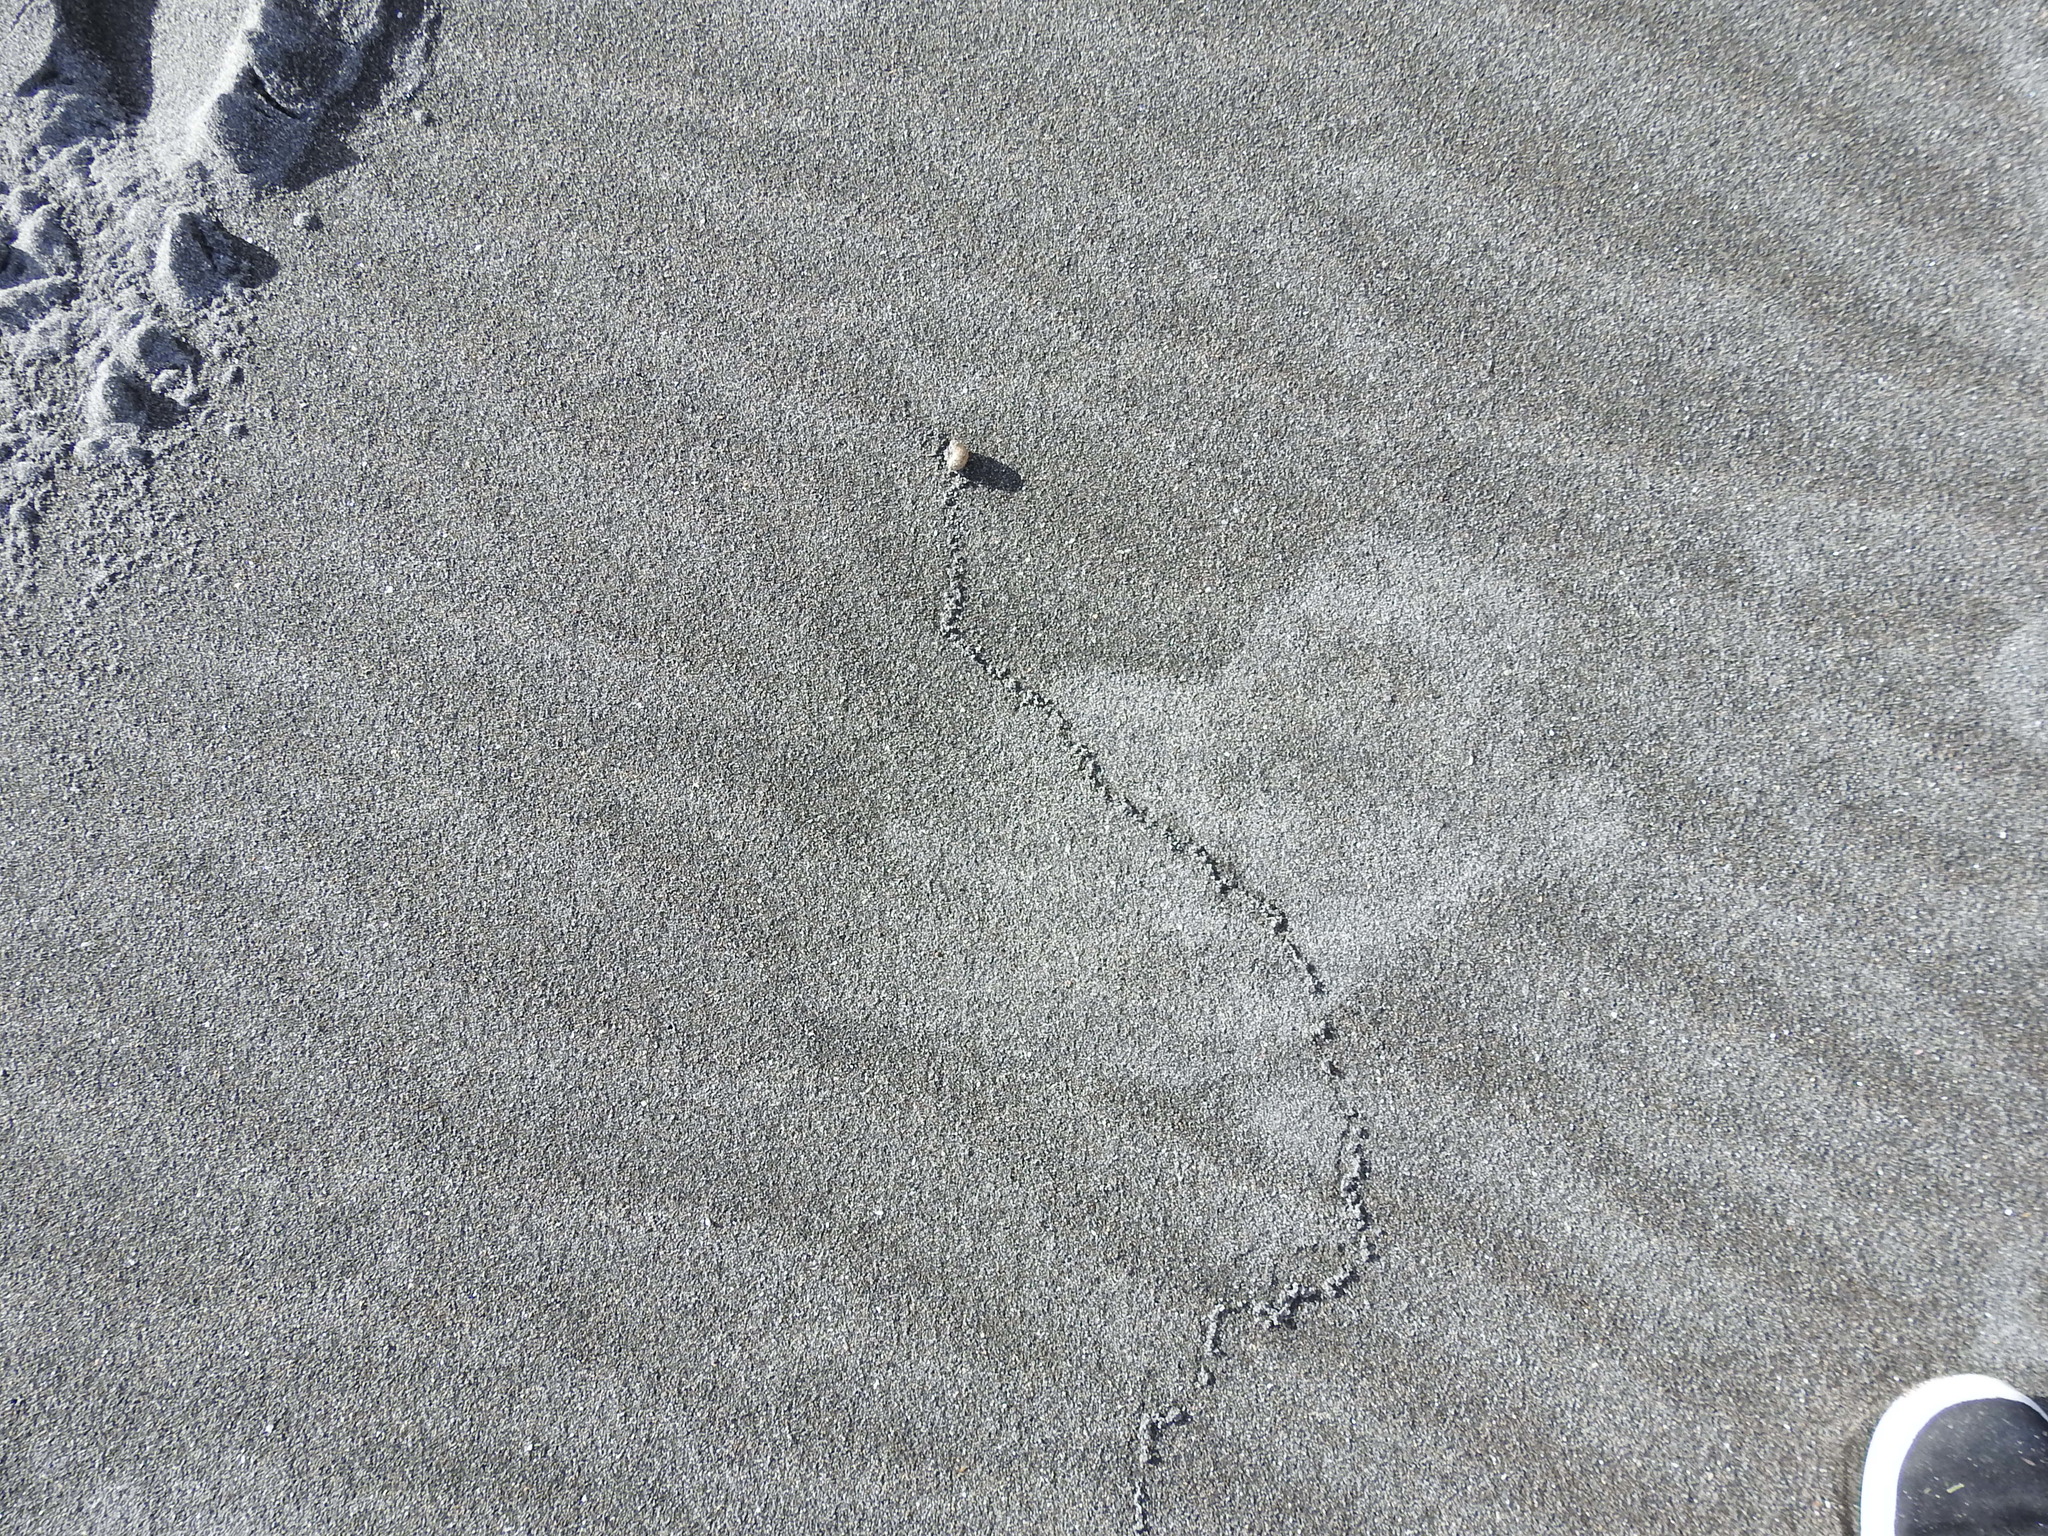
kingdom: Animalia
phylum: Mollusca
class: Gastropoda
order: Stylommatophora
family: Helicidae
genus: Cornu
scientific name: Cornu aspersum
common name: Brown garden snail
